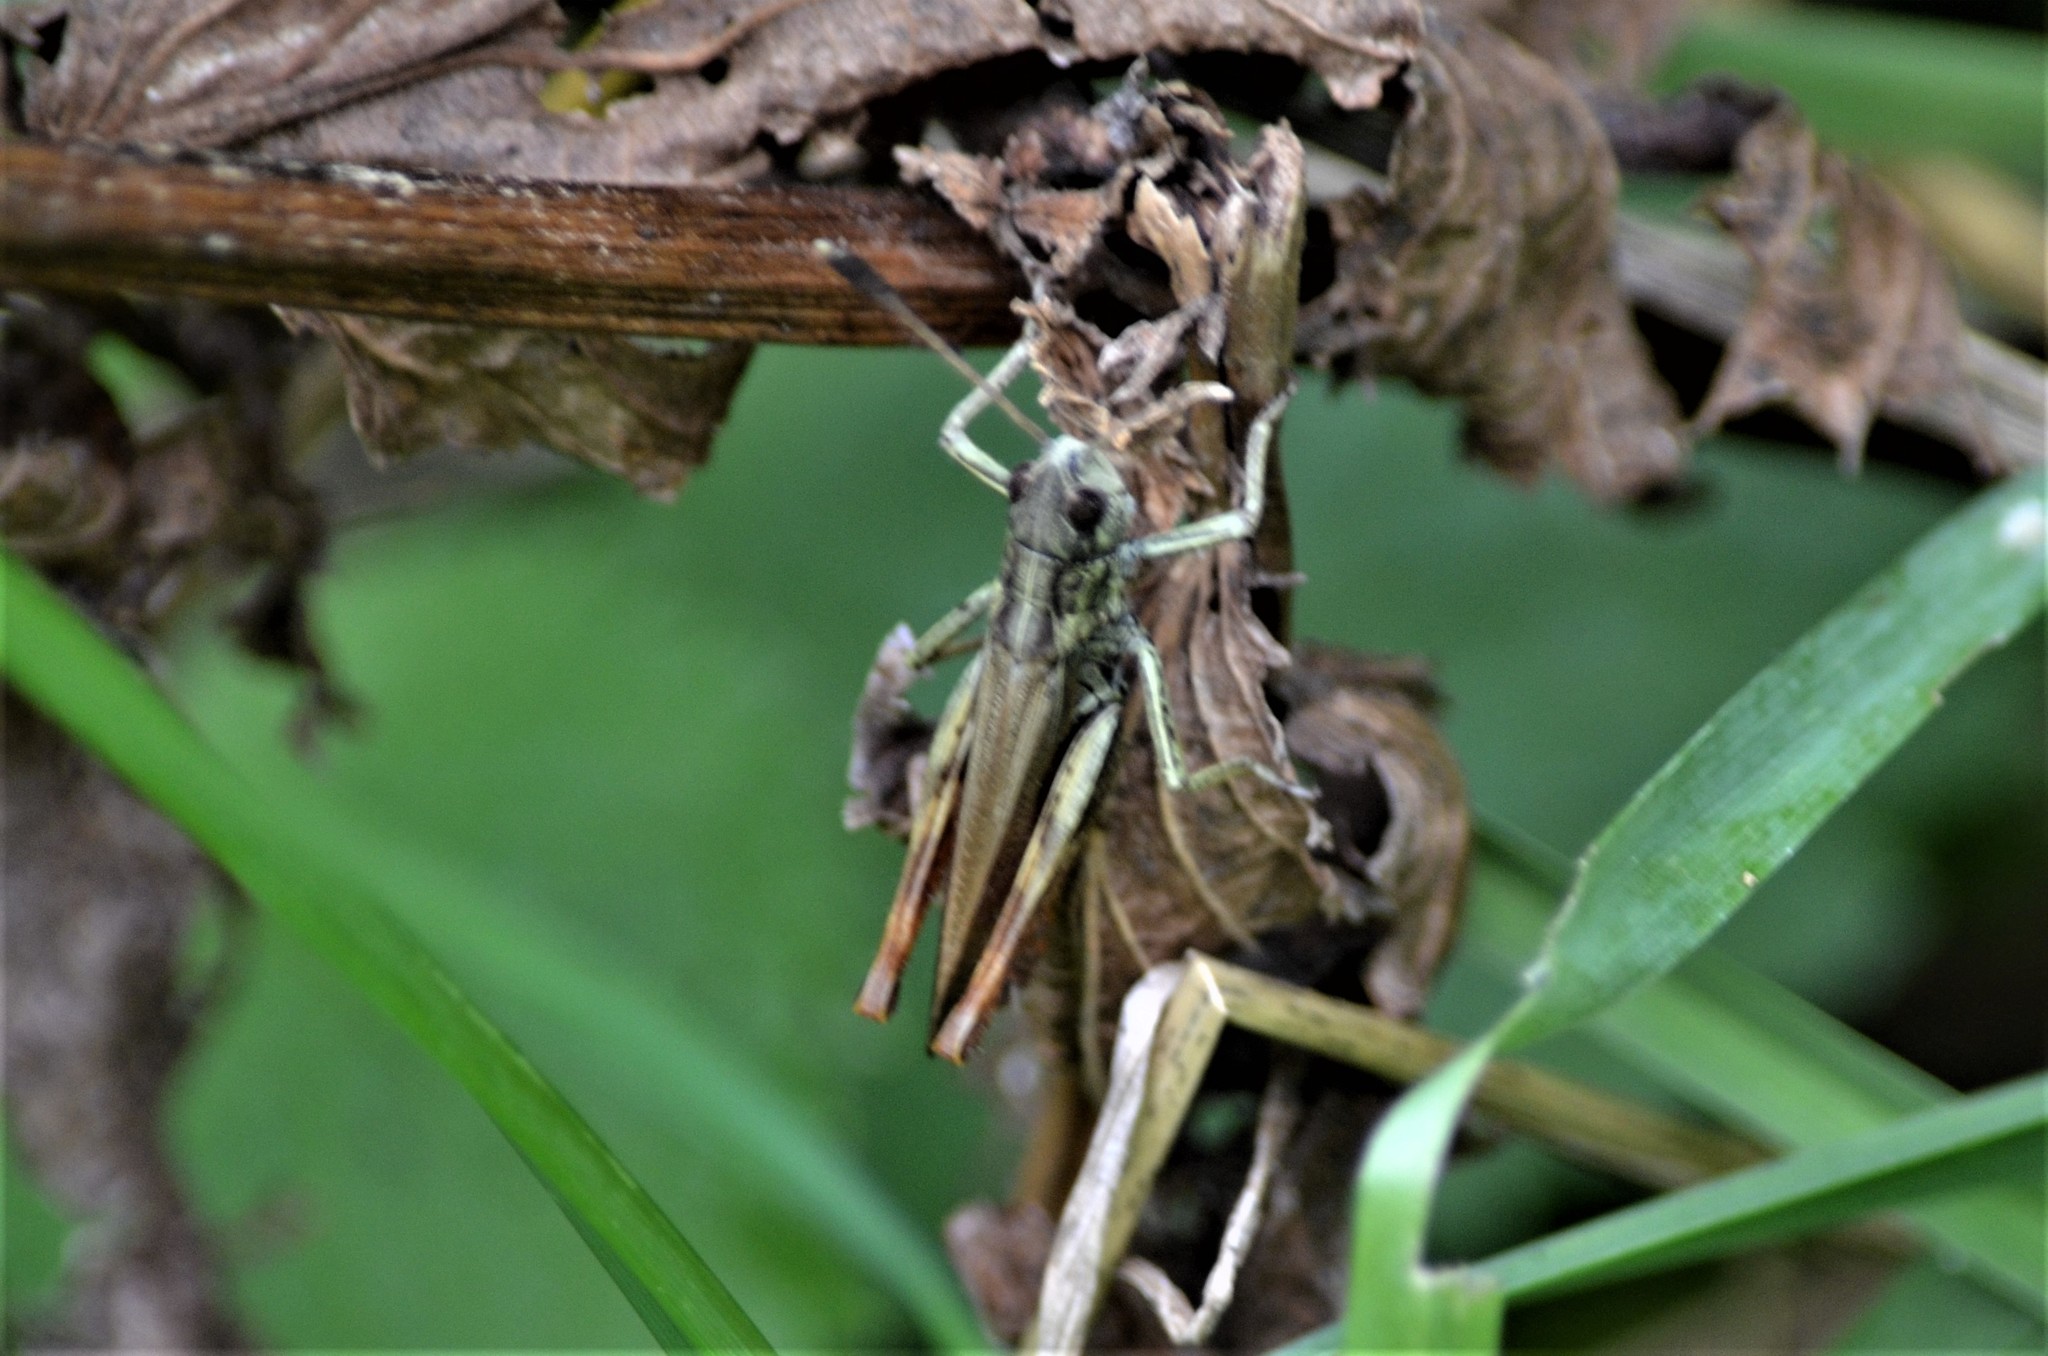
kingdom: Animalia
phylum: Arthropoda
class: Insecta
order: Orthoptera
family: Acrididae
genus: Gomphocerippus
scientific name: Gomphocerippus rufus
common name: Rufous grasshopper
